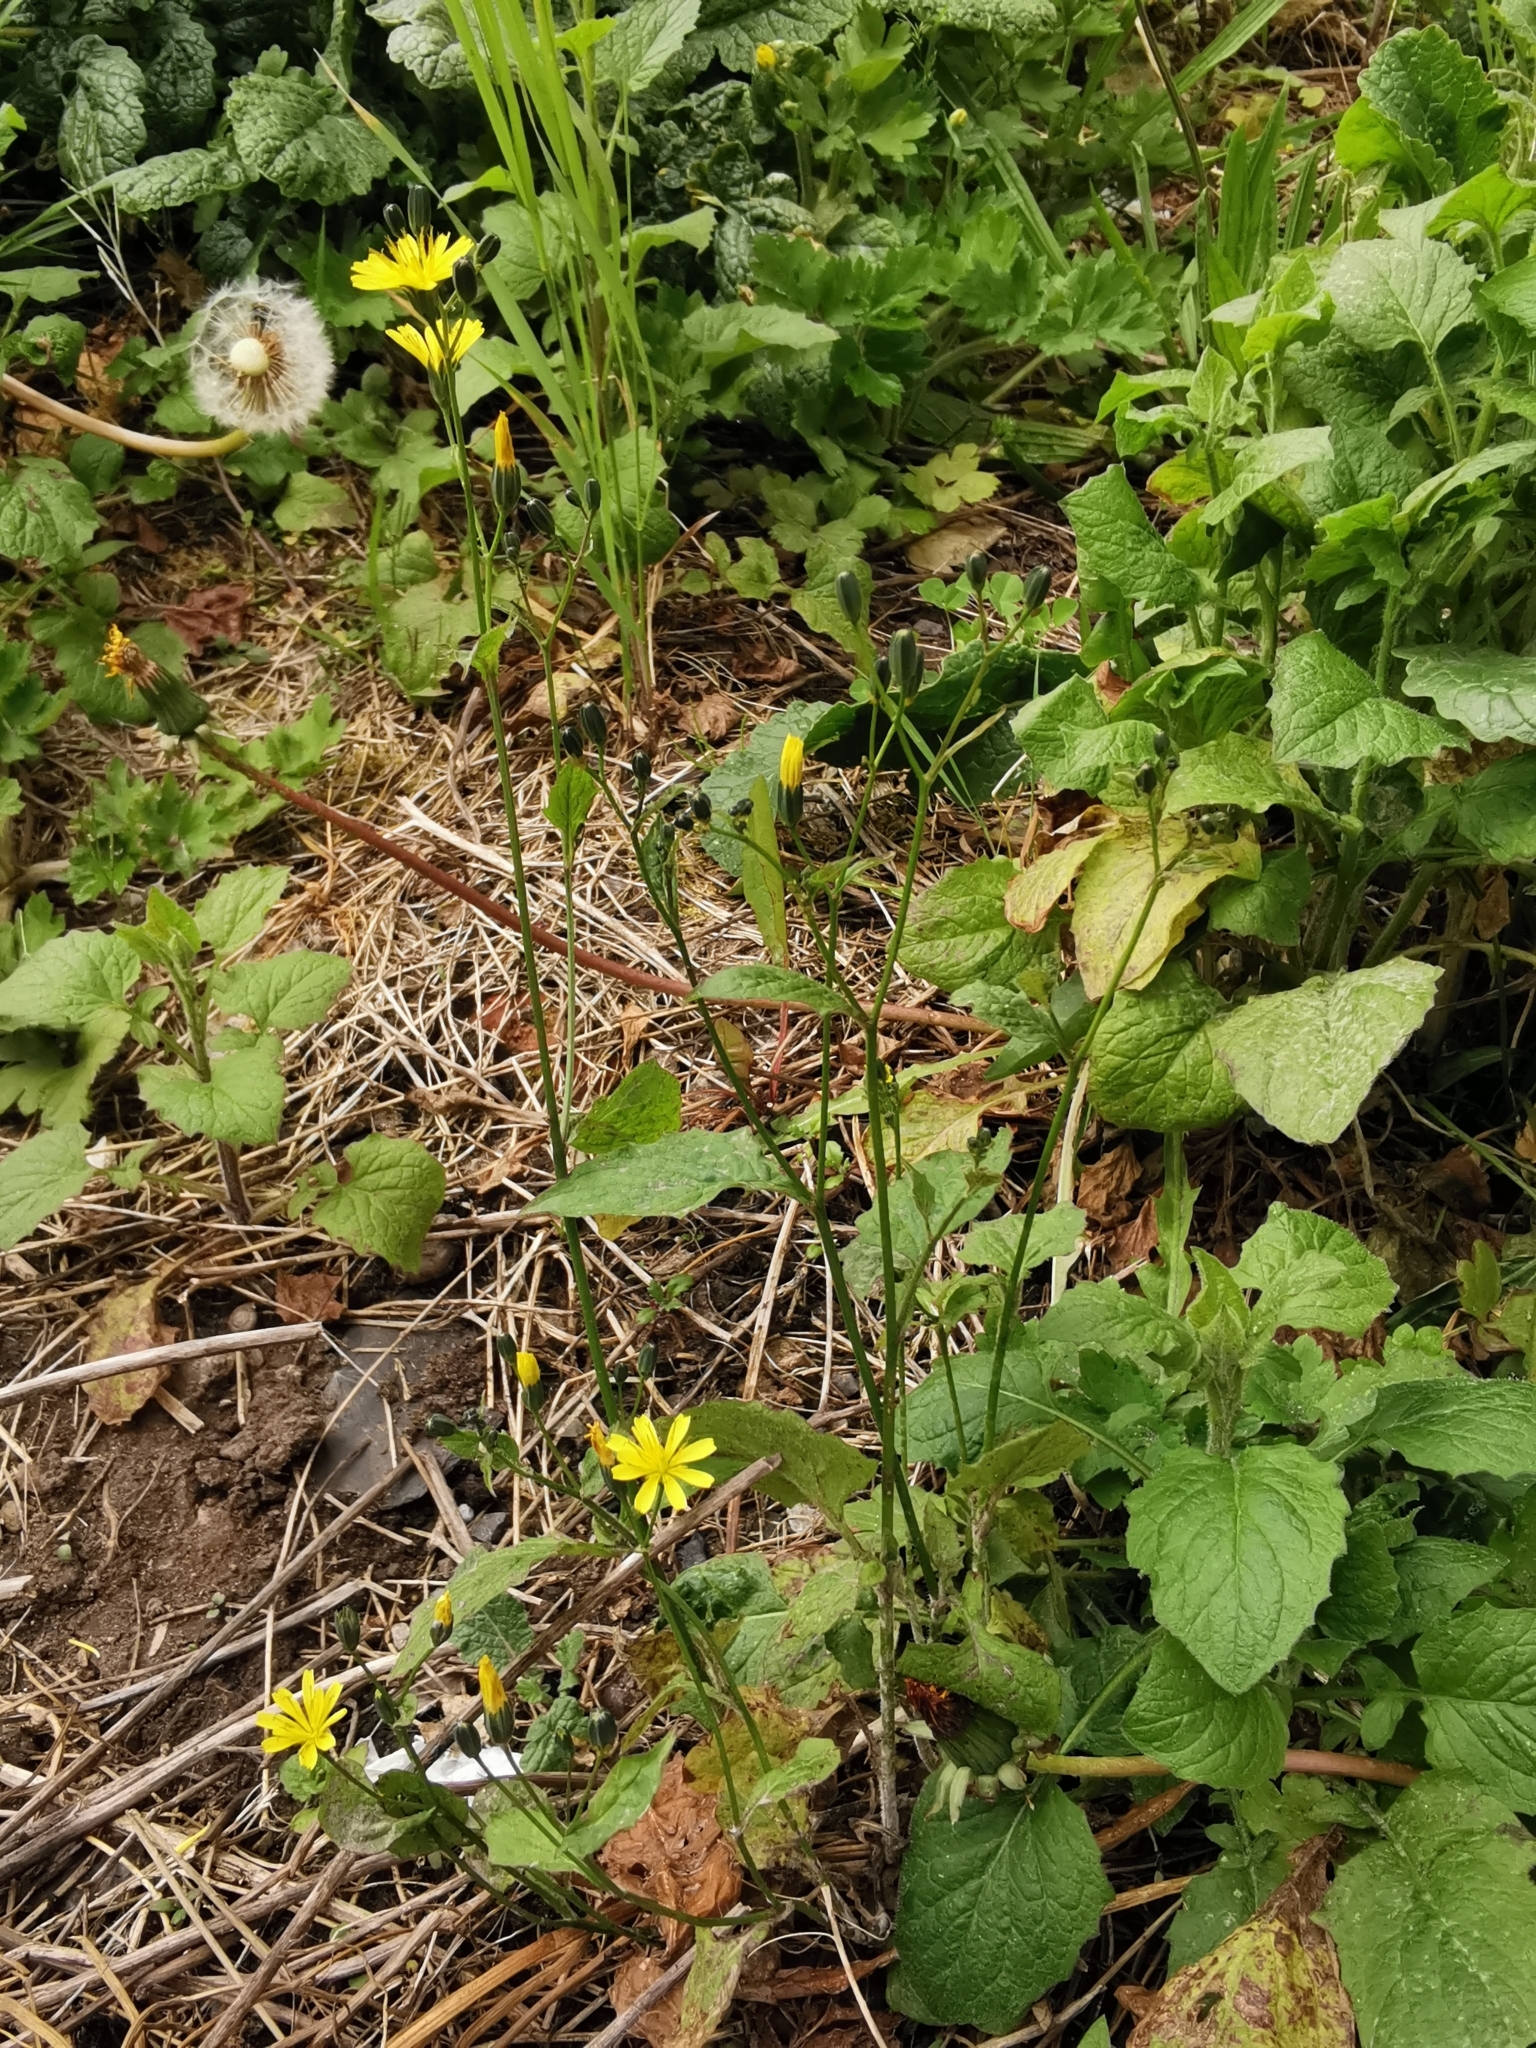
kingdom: Plantae
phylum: Tracheophyta
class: Magnoliopsida
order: Asterales
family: Asteraceae
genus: Lapsana
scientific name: Lapsana communis
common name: Nipplewort
